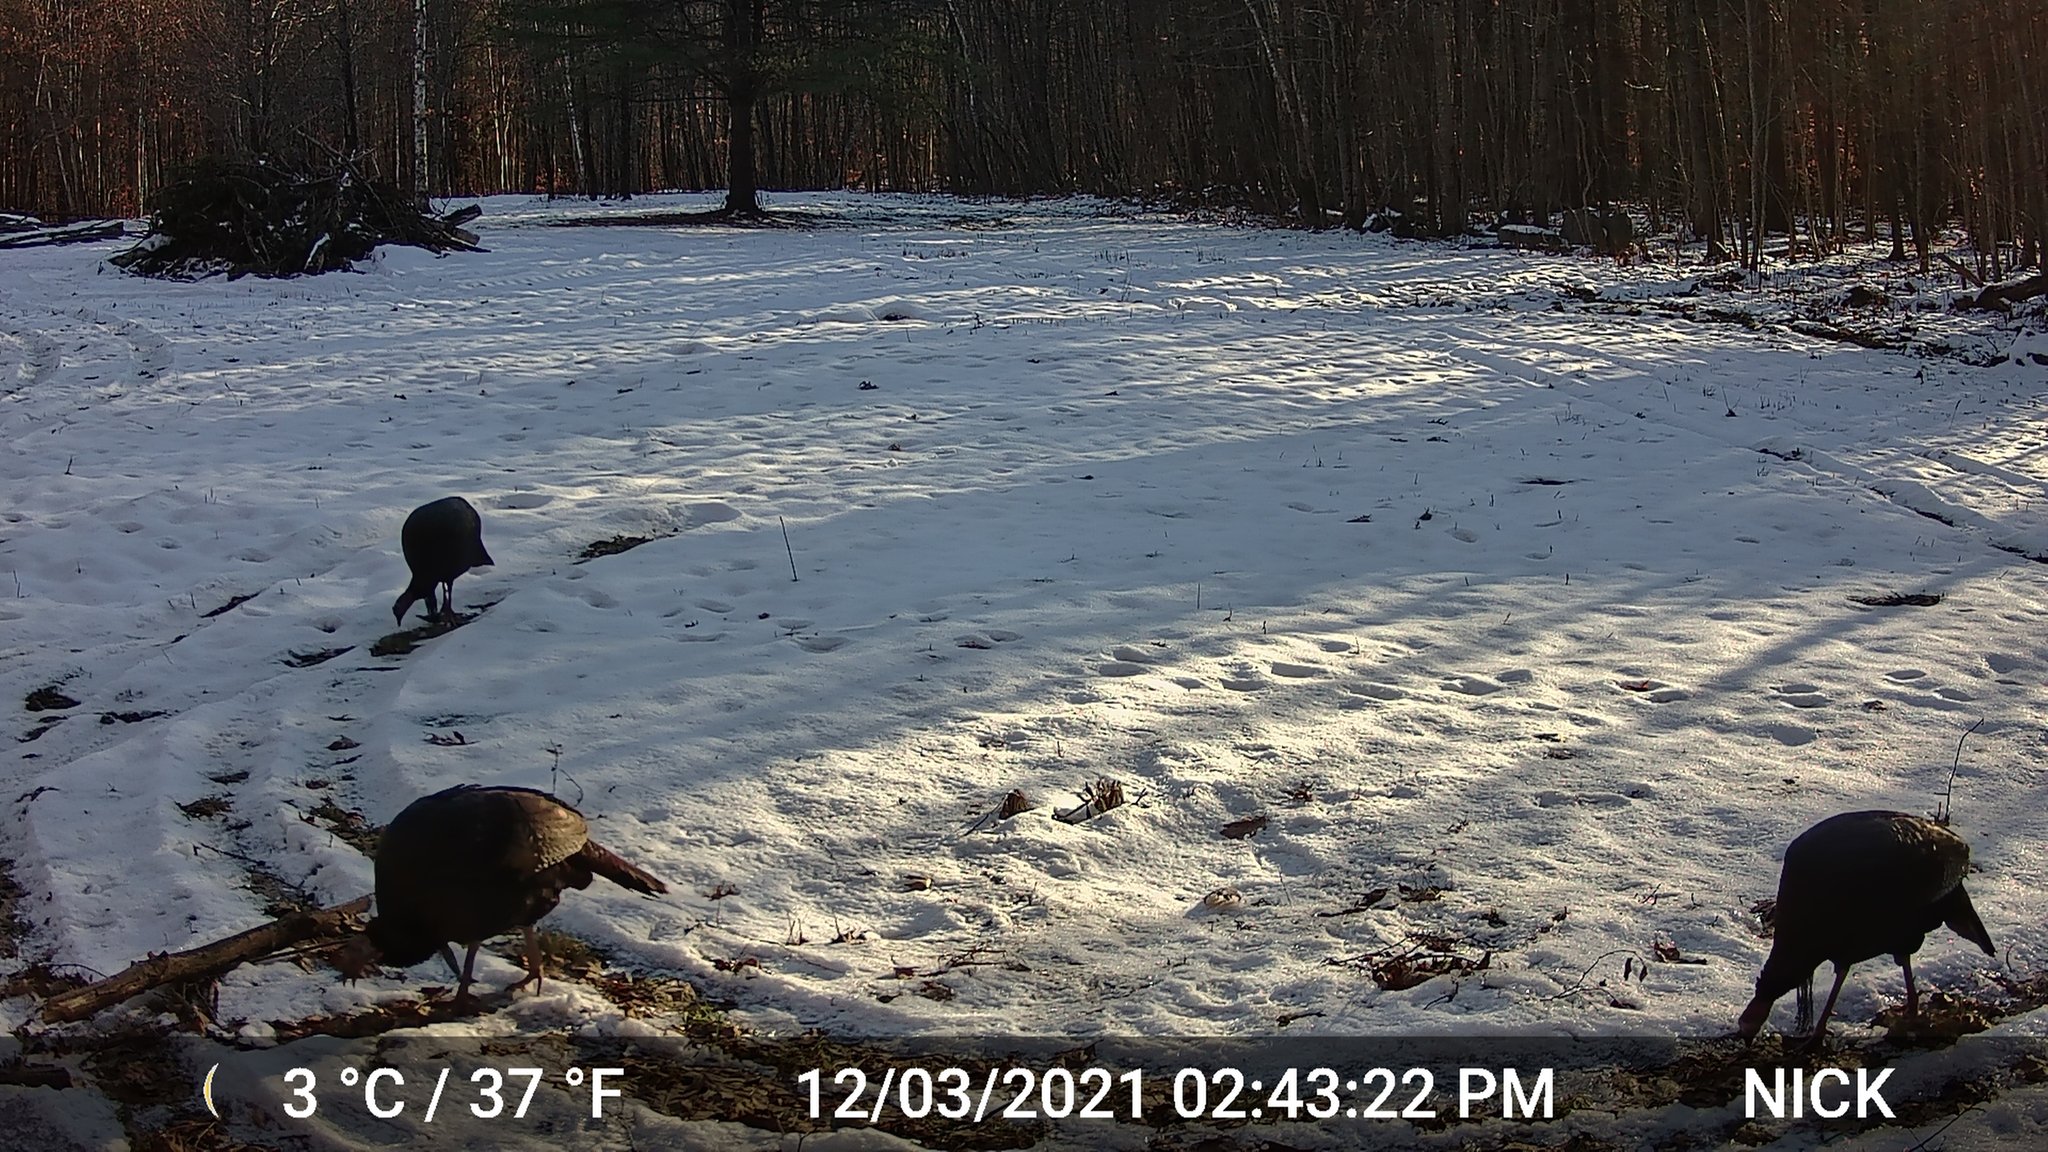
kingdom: Animalia
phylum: Chordata
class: Aves
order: Galliformes
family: Phasianidae
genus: Meleagris
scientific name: Meleagris gallopavo
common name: Wild turkey
